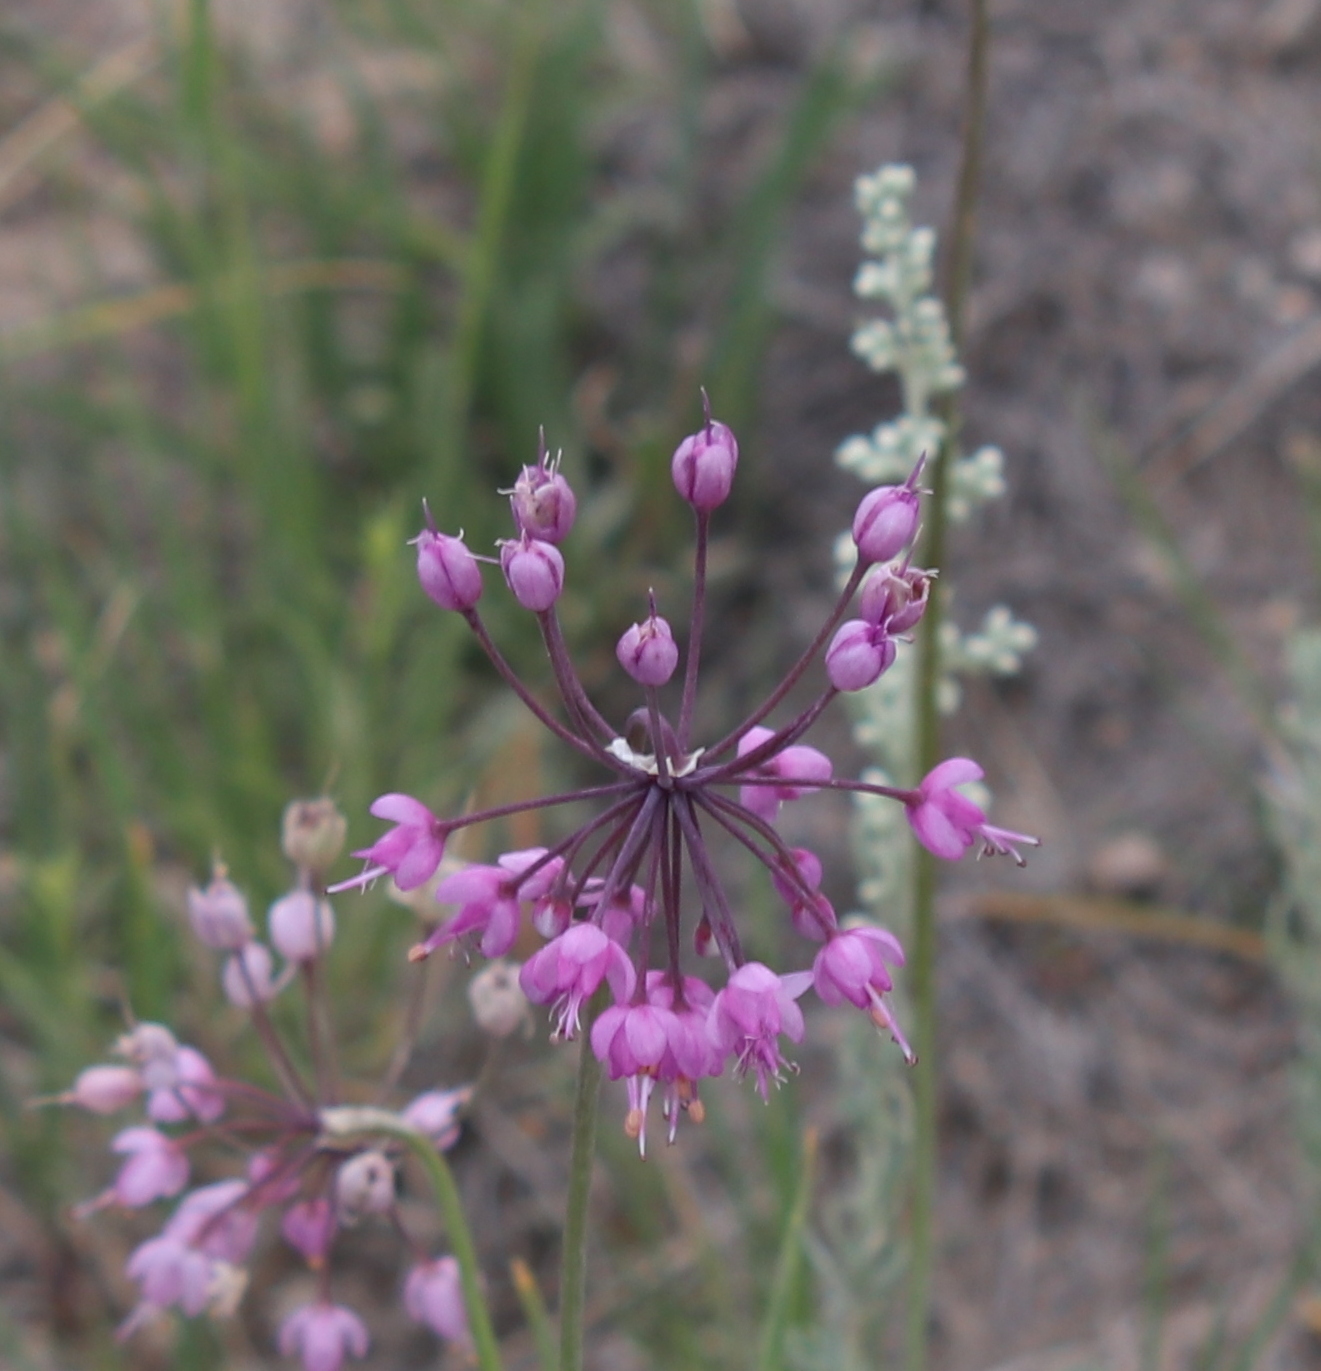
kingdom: Plantae
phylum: Tracheophyta
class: Liliopsida
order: Asparagales
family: Amaryllidaceae
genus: Allium
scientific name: Allium cernuum
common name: Nodding onion
